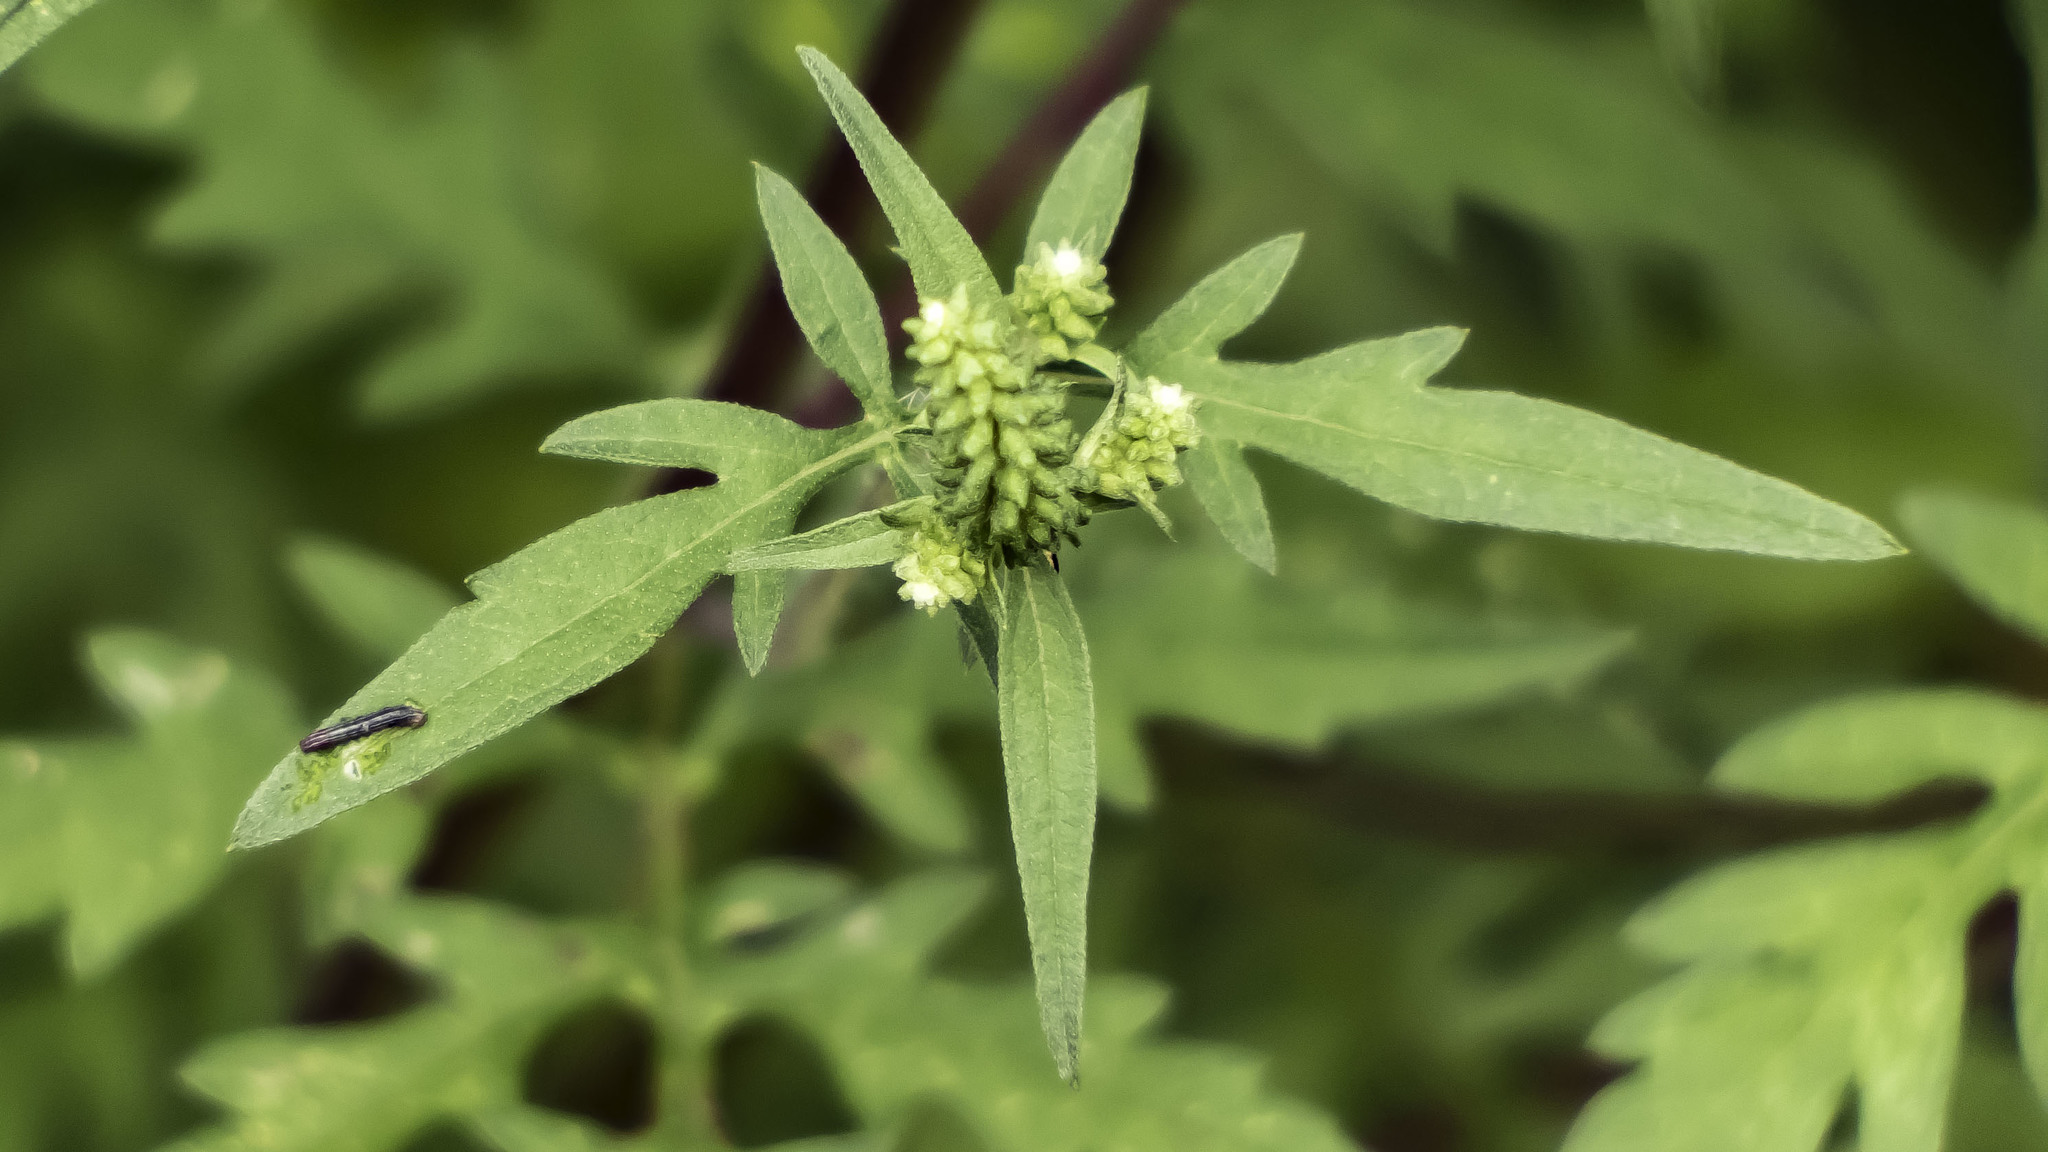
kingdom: Plantae
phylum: Tracheophyta
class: Magnoliopsida
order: Asterales
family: Asteraceae
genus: Ambrosia
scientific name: Ambrosia artemisiifolia
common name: Annual ragweed
